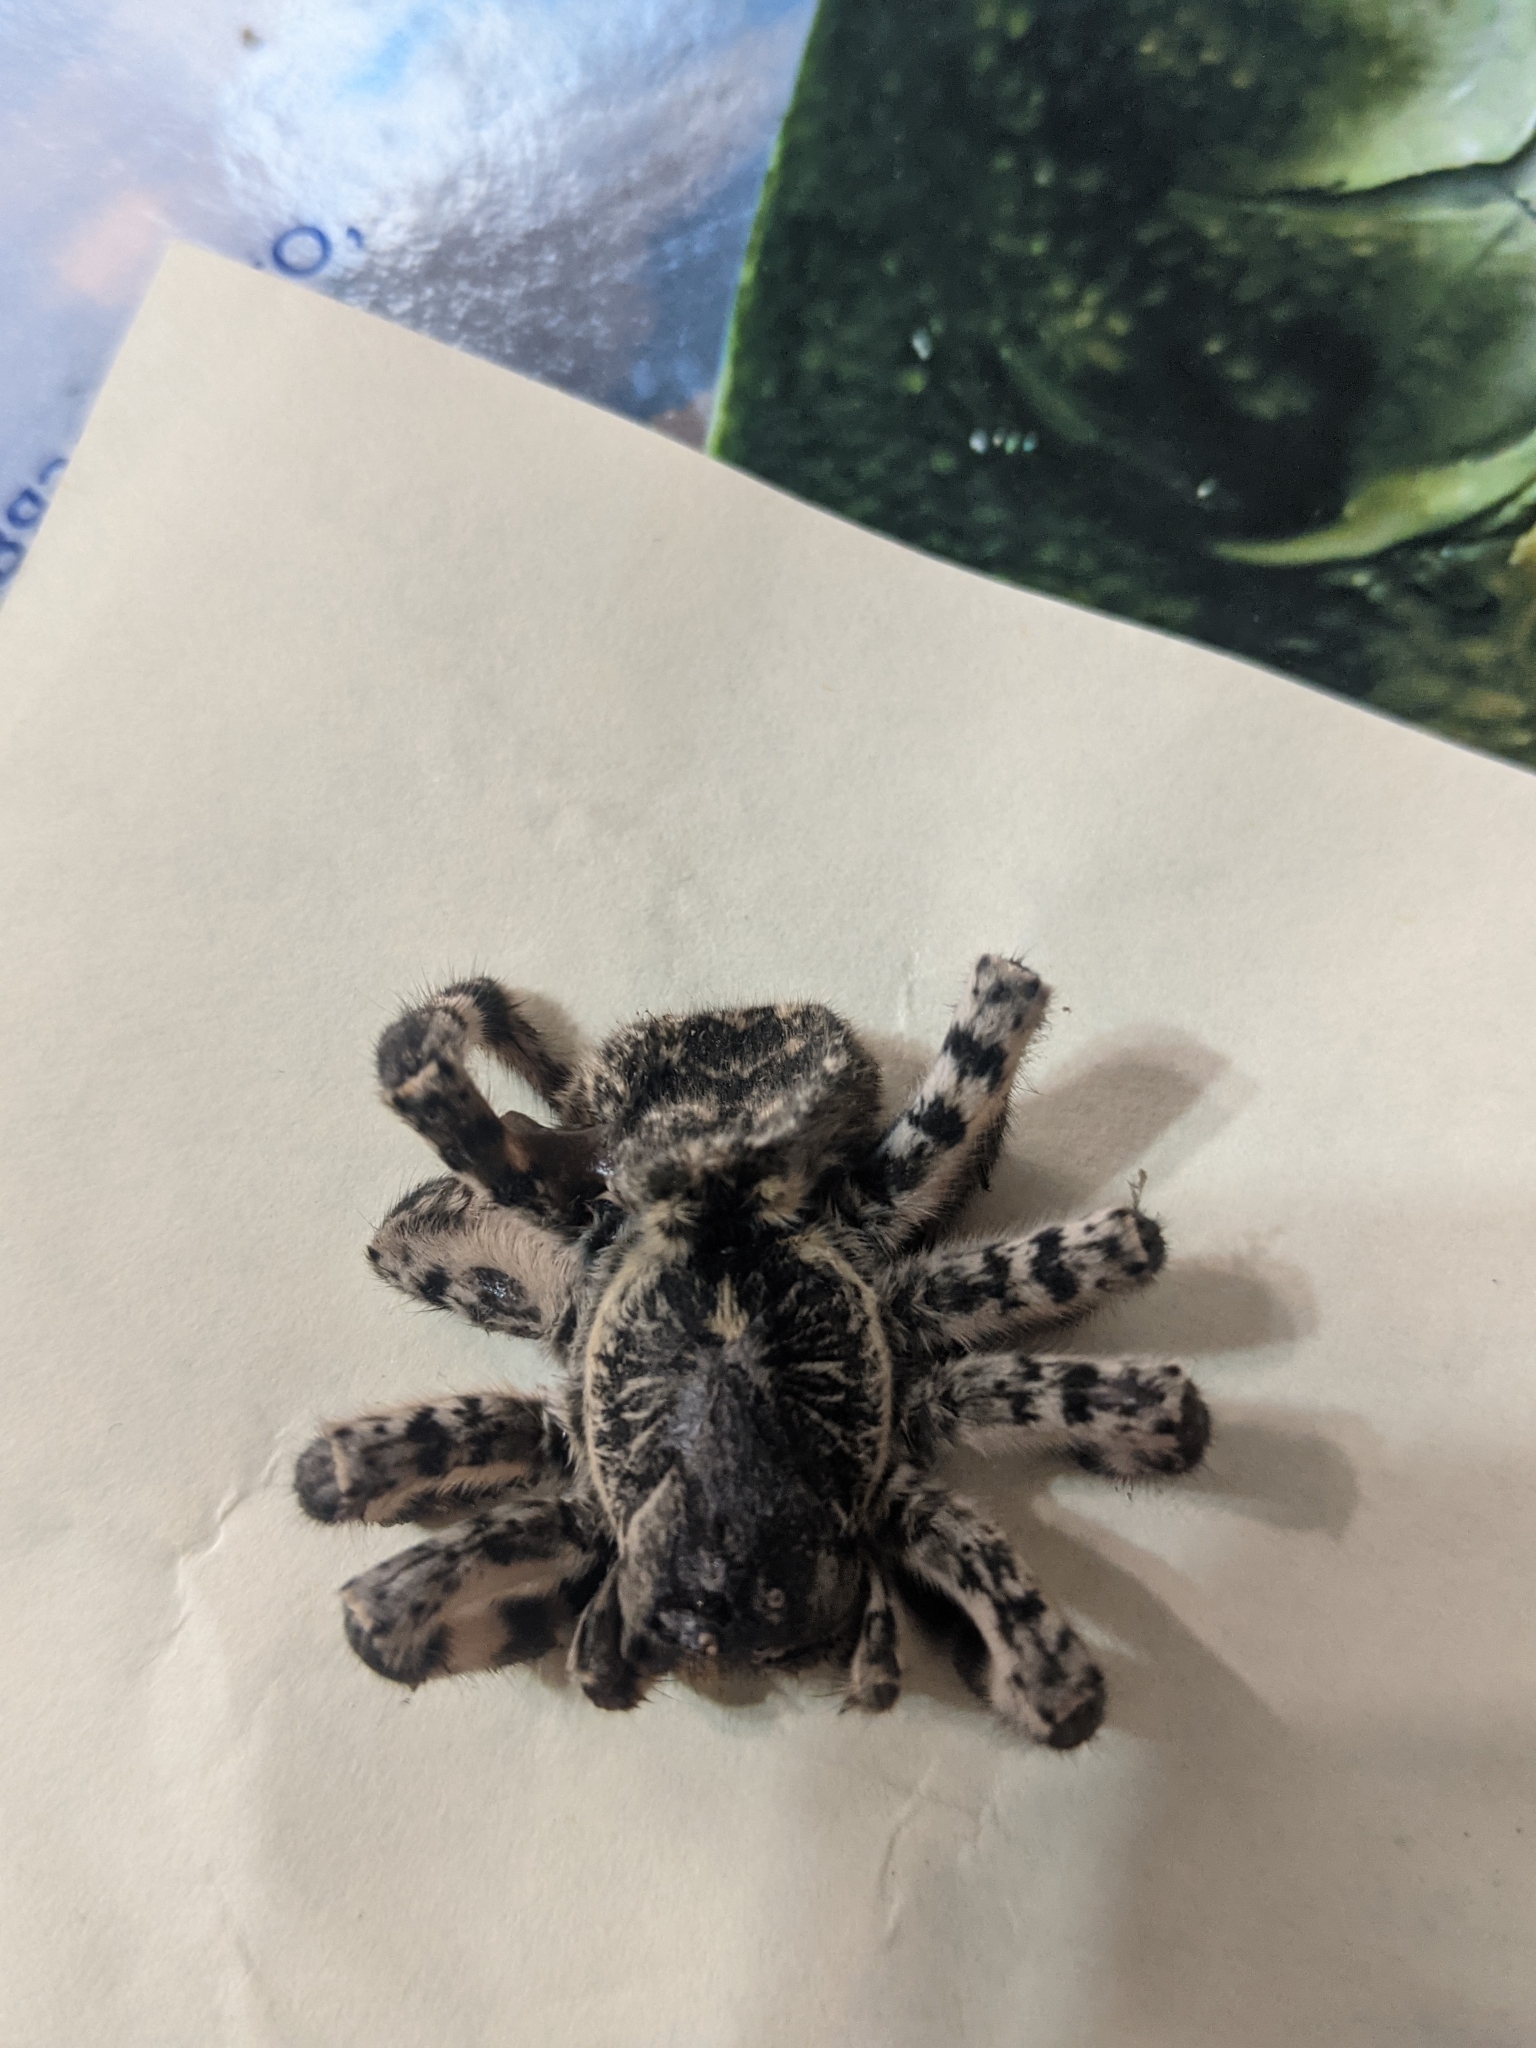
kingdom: Animalia
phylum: Arthropoda
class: Arachnida
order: Araneae
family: Lycosidae
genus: Lycosa
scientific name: Lycosa singoriensis
